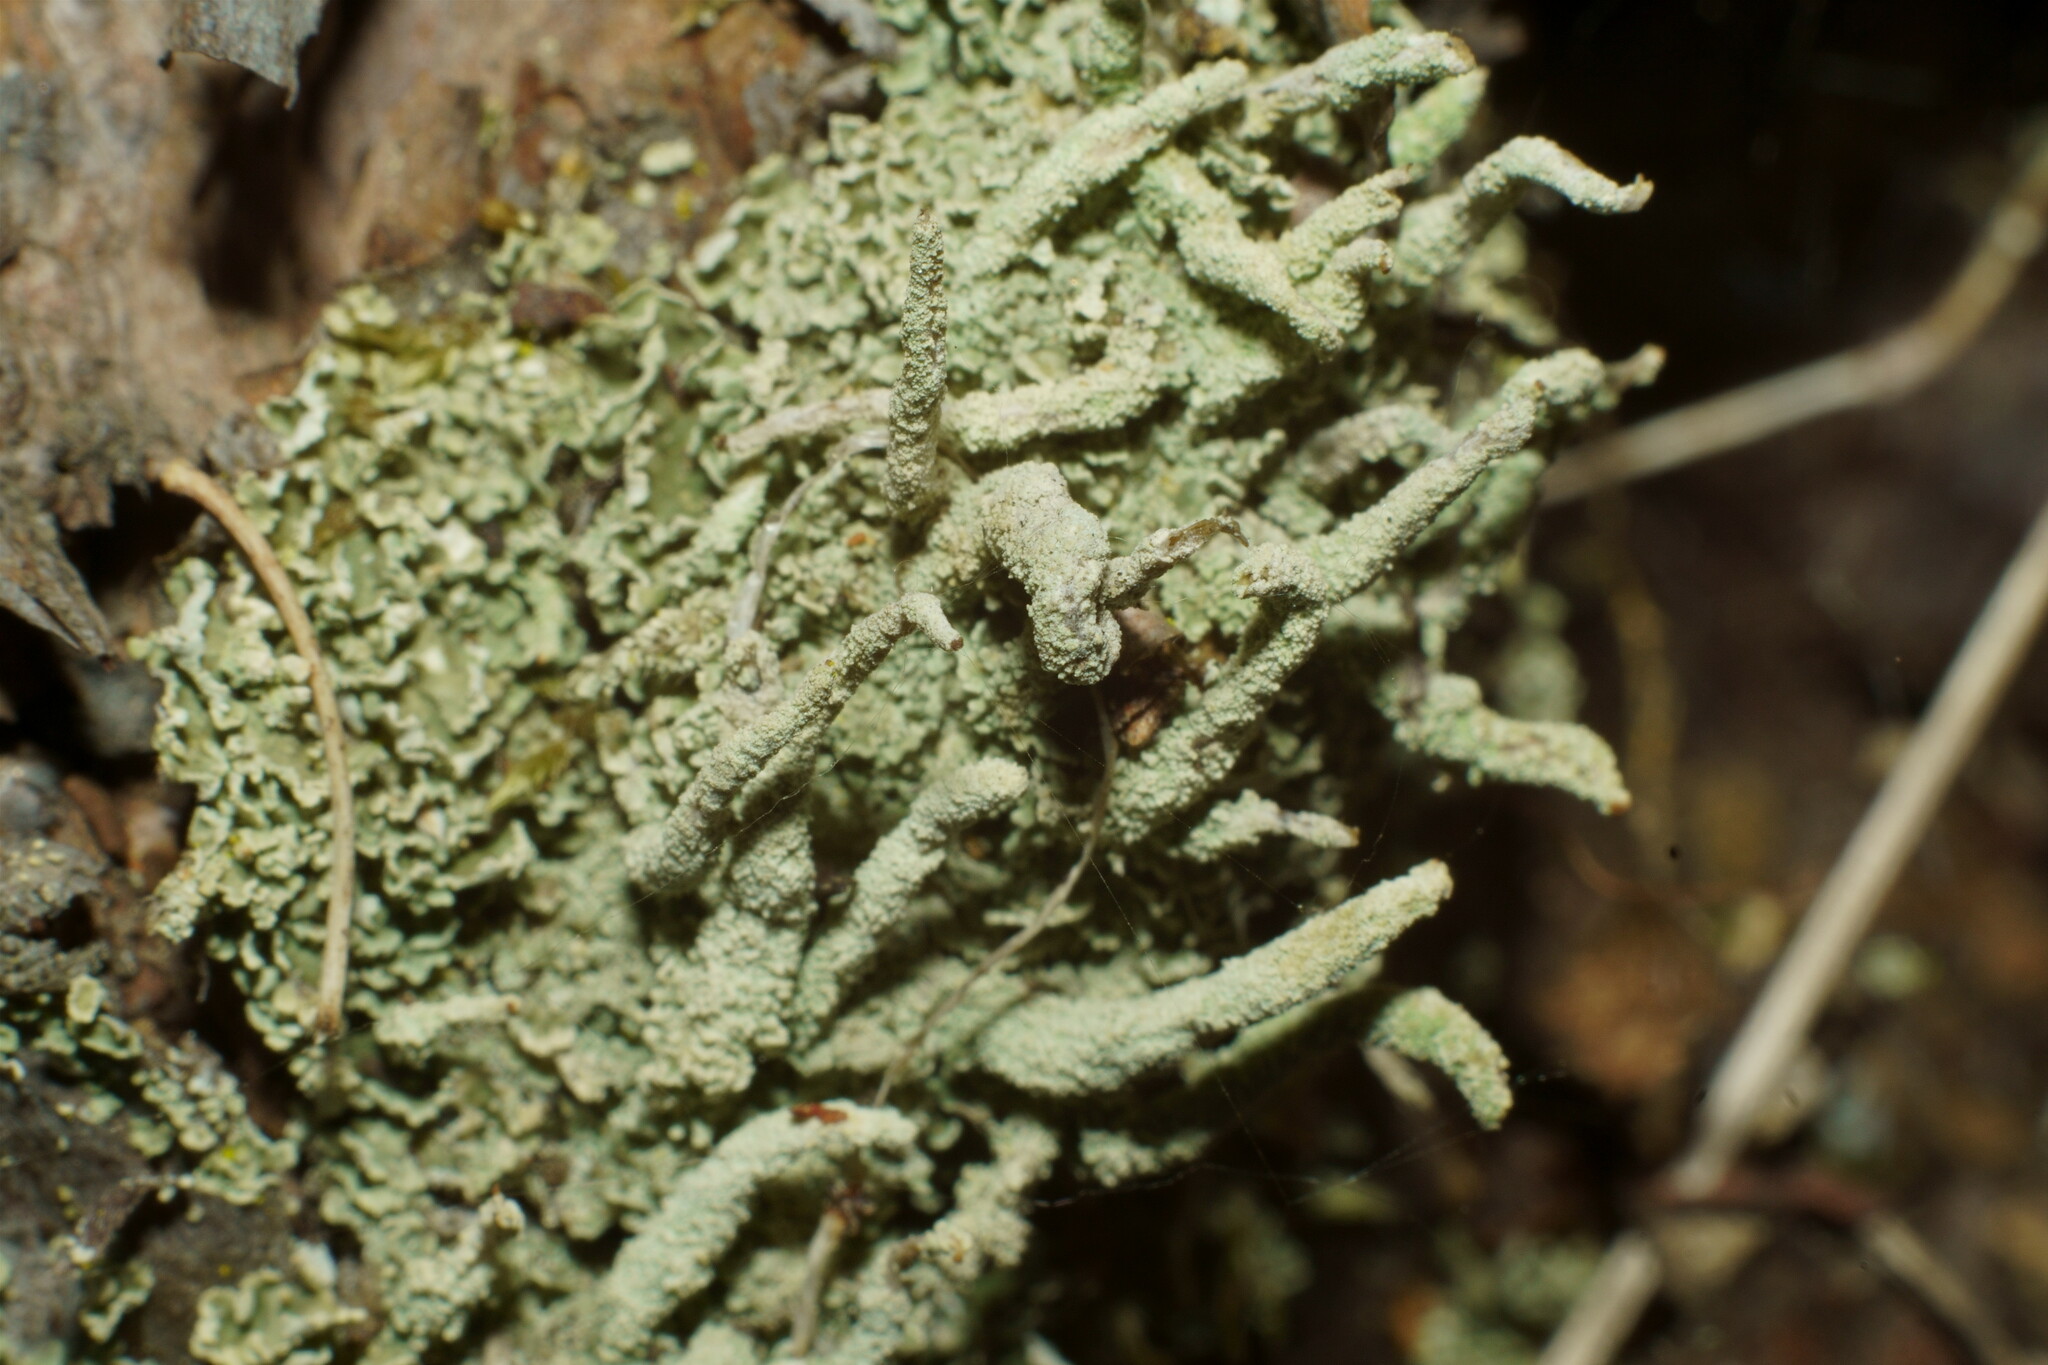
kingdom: Fungi
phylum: Ascomycota
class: Lecanoromycetes
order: Lecanorales
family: Cladoniaceae
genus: Cladonia
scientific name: Cladonia coniocraea
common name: Common powderhorn
